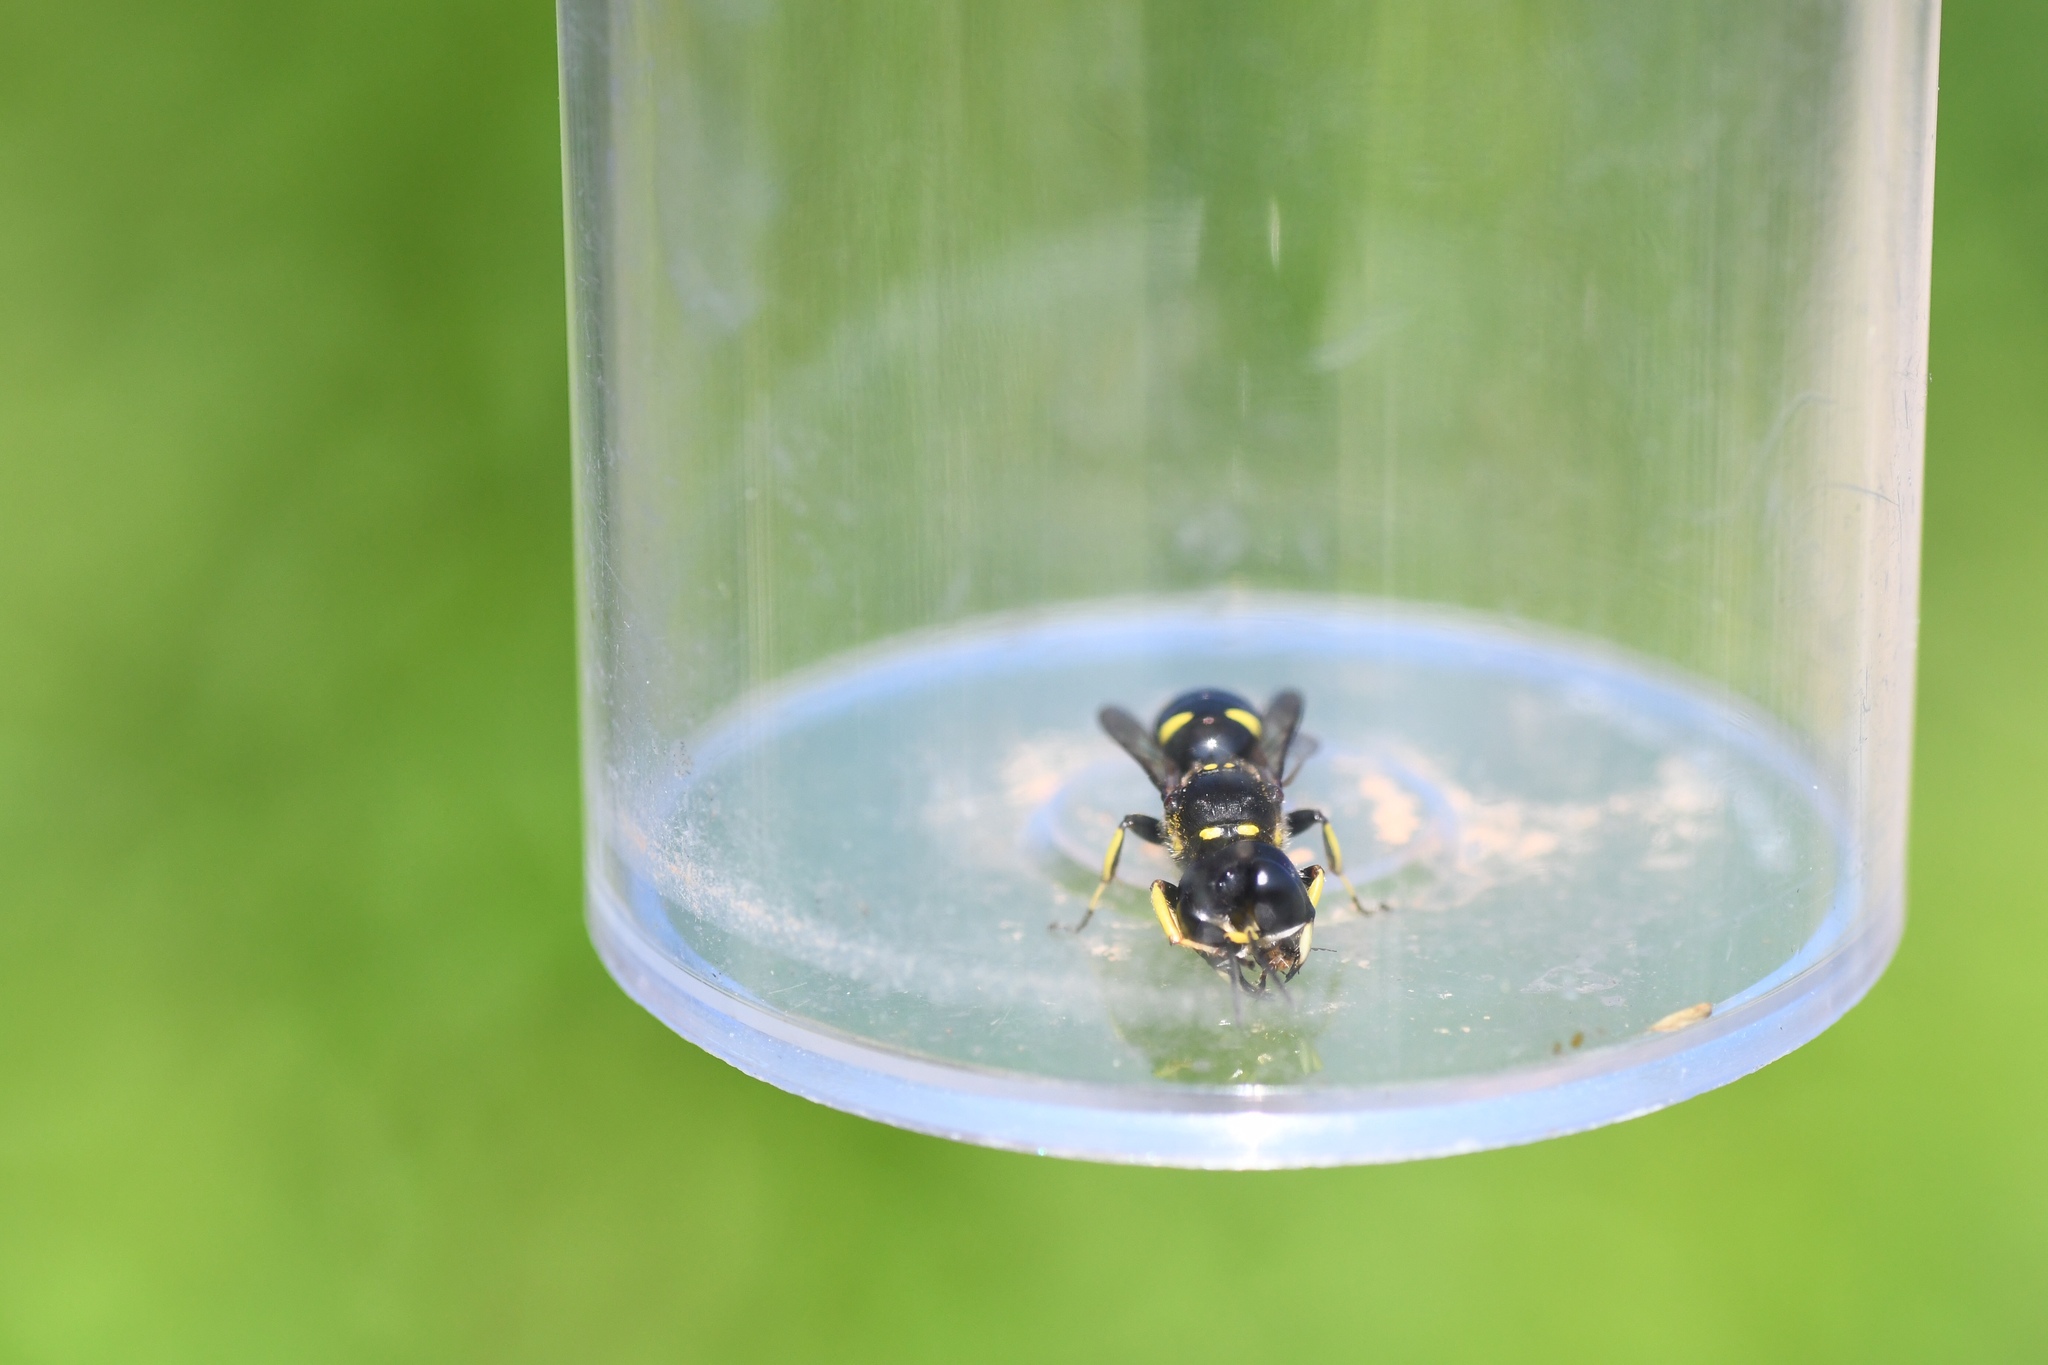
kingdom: Animalia
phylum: Arthropoda
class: Insecta
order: Hymenoptera
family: Crabronidae
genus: Ectemnius
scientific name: Ectemnius maculosus
